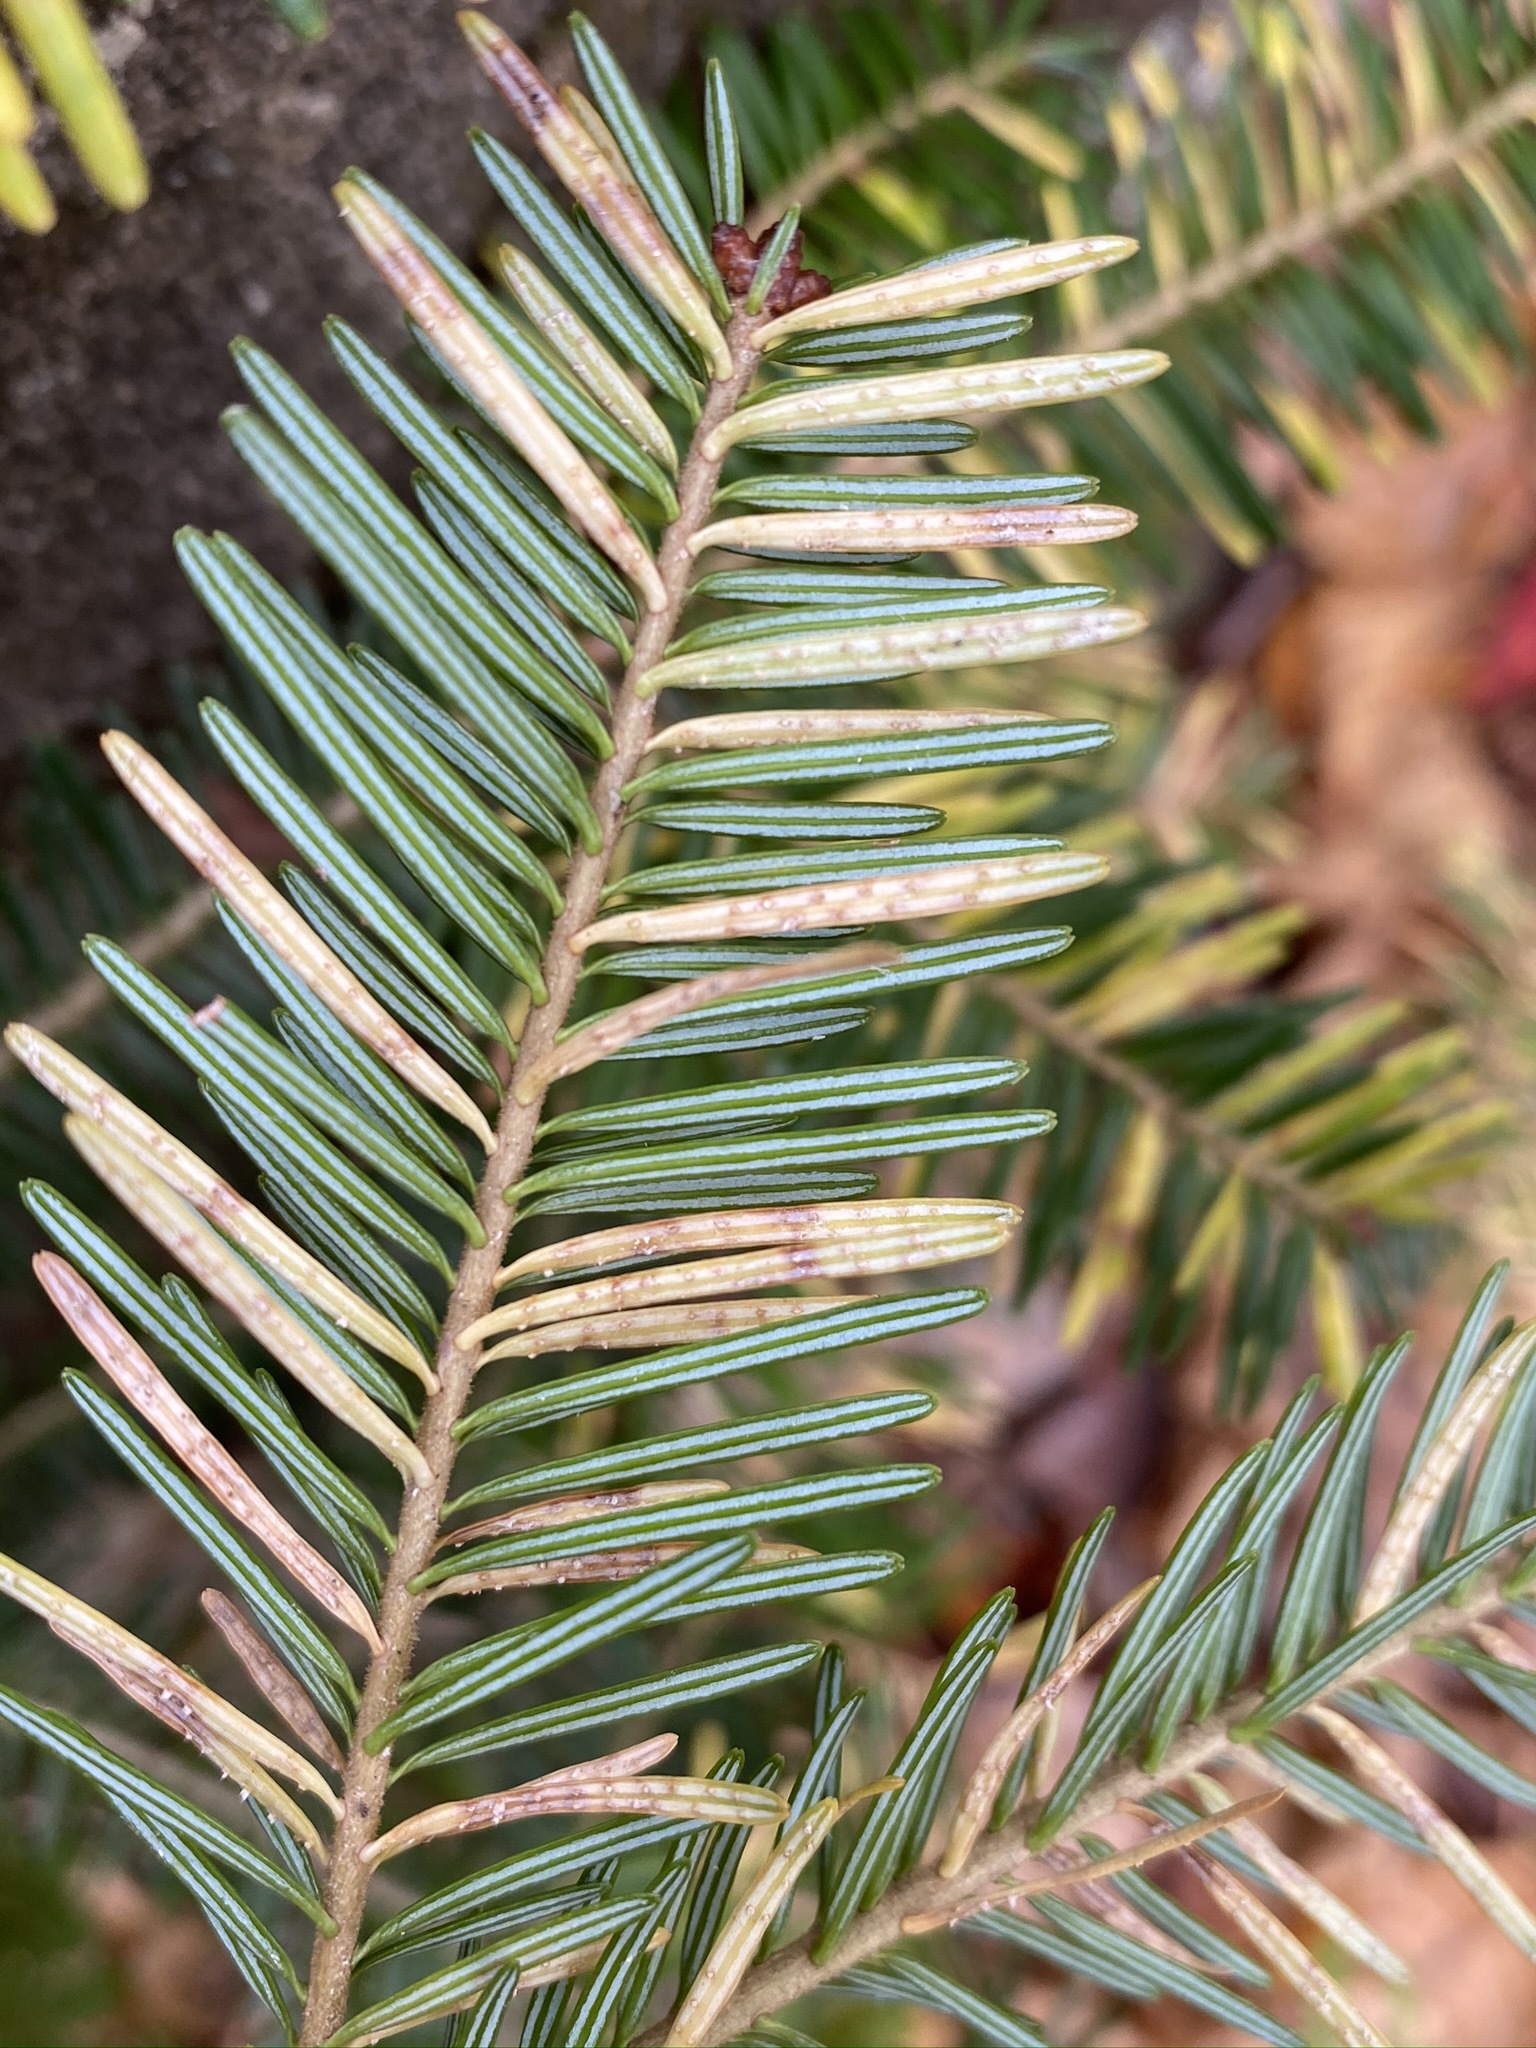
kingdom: Fungi
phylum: Basidiomycota
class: Pucciniomycetes
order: Pucciniales
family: Pucciniastraceae
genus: Calyptospora
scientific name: Calyptospora columnaris
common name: Huckleberry broom rust fungus
